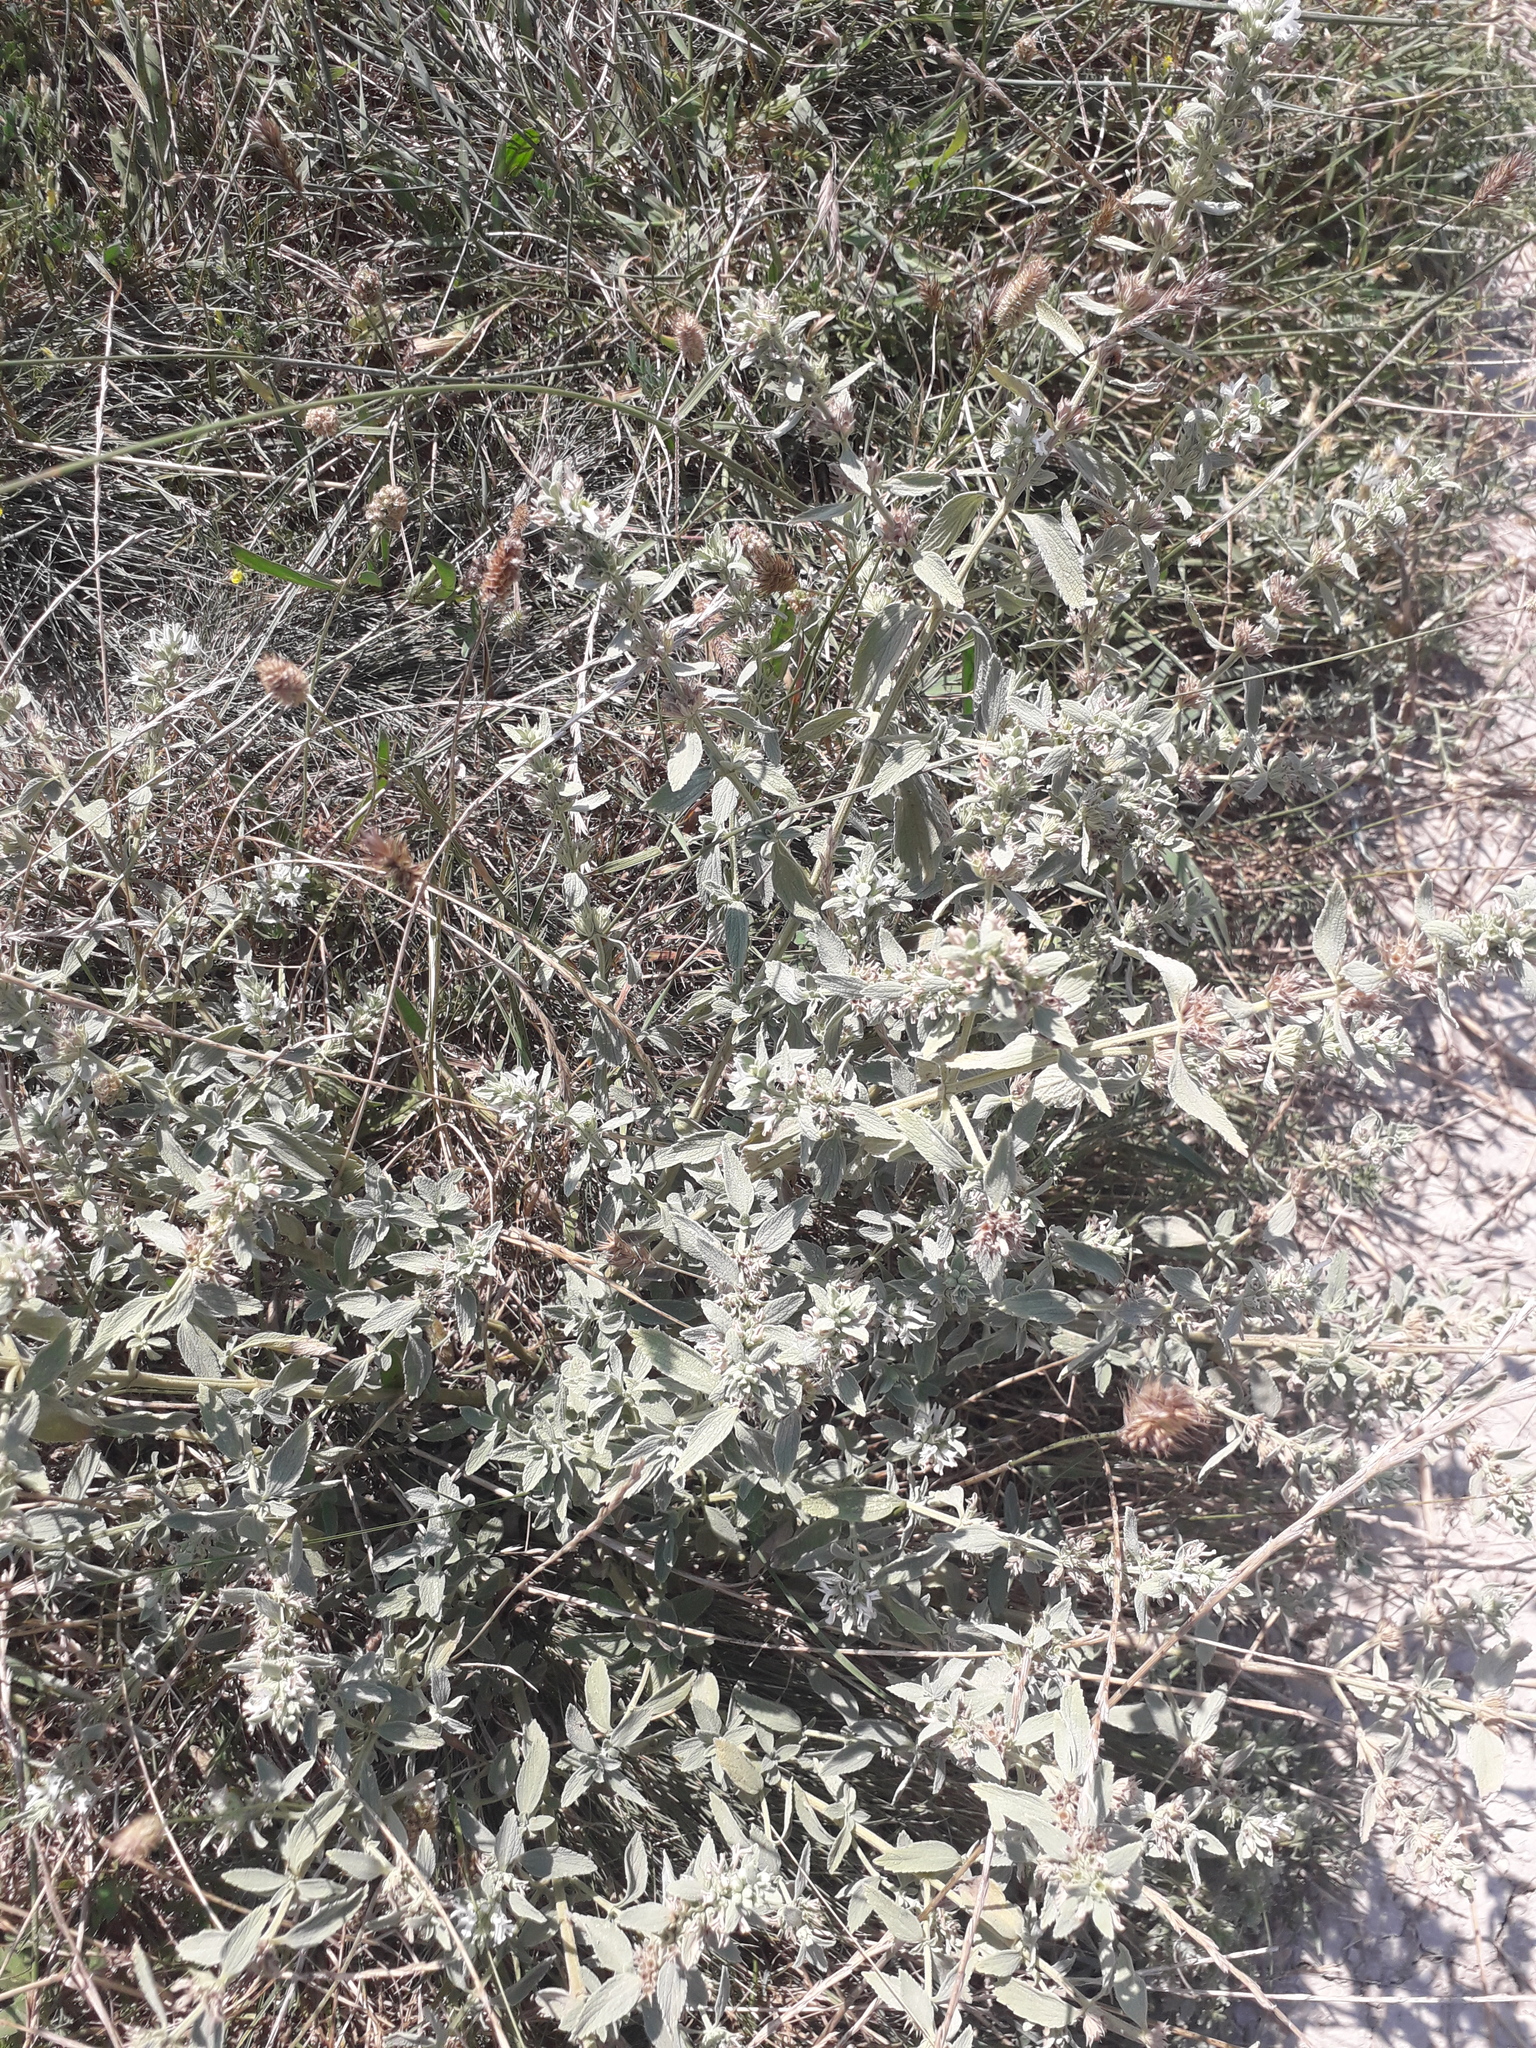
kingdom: Plantae
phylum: Tracheophyta
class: Magnoliopsida
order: Lamiales
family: Lamiaceae
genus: Marrubium
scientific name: Marrubium peregrinum
